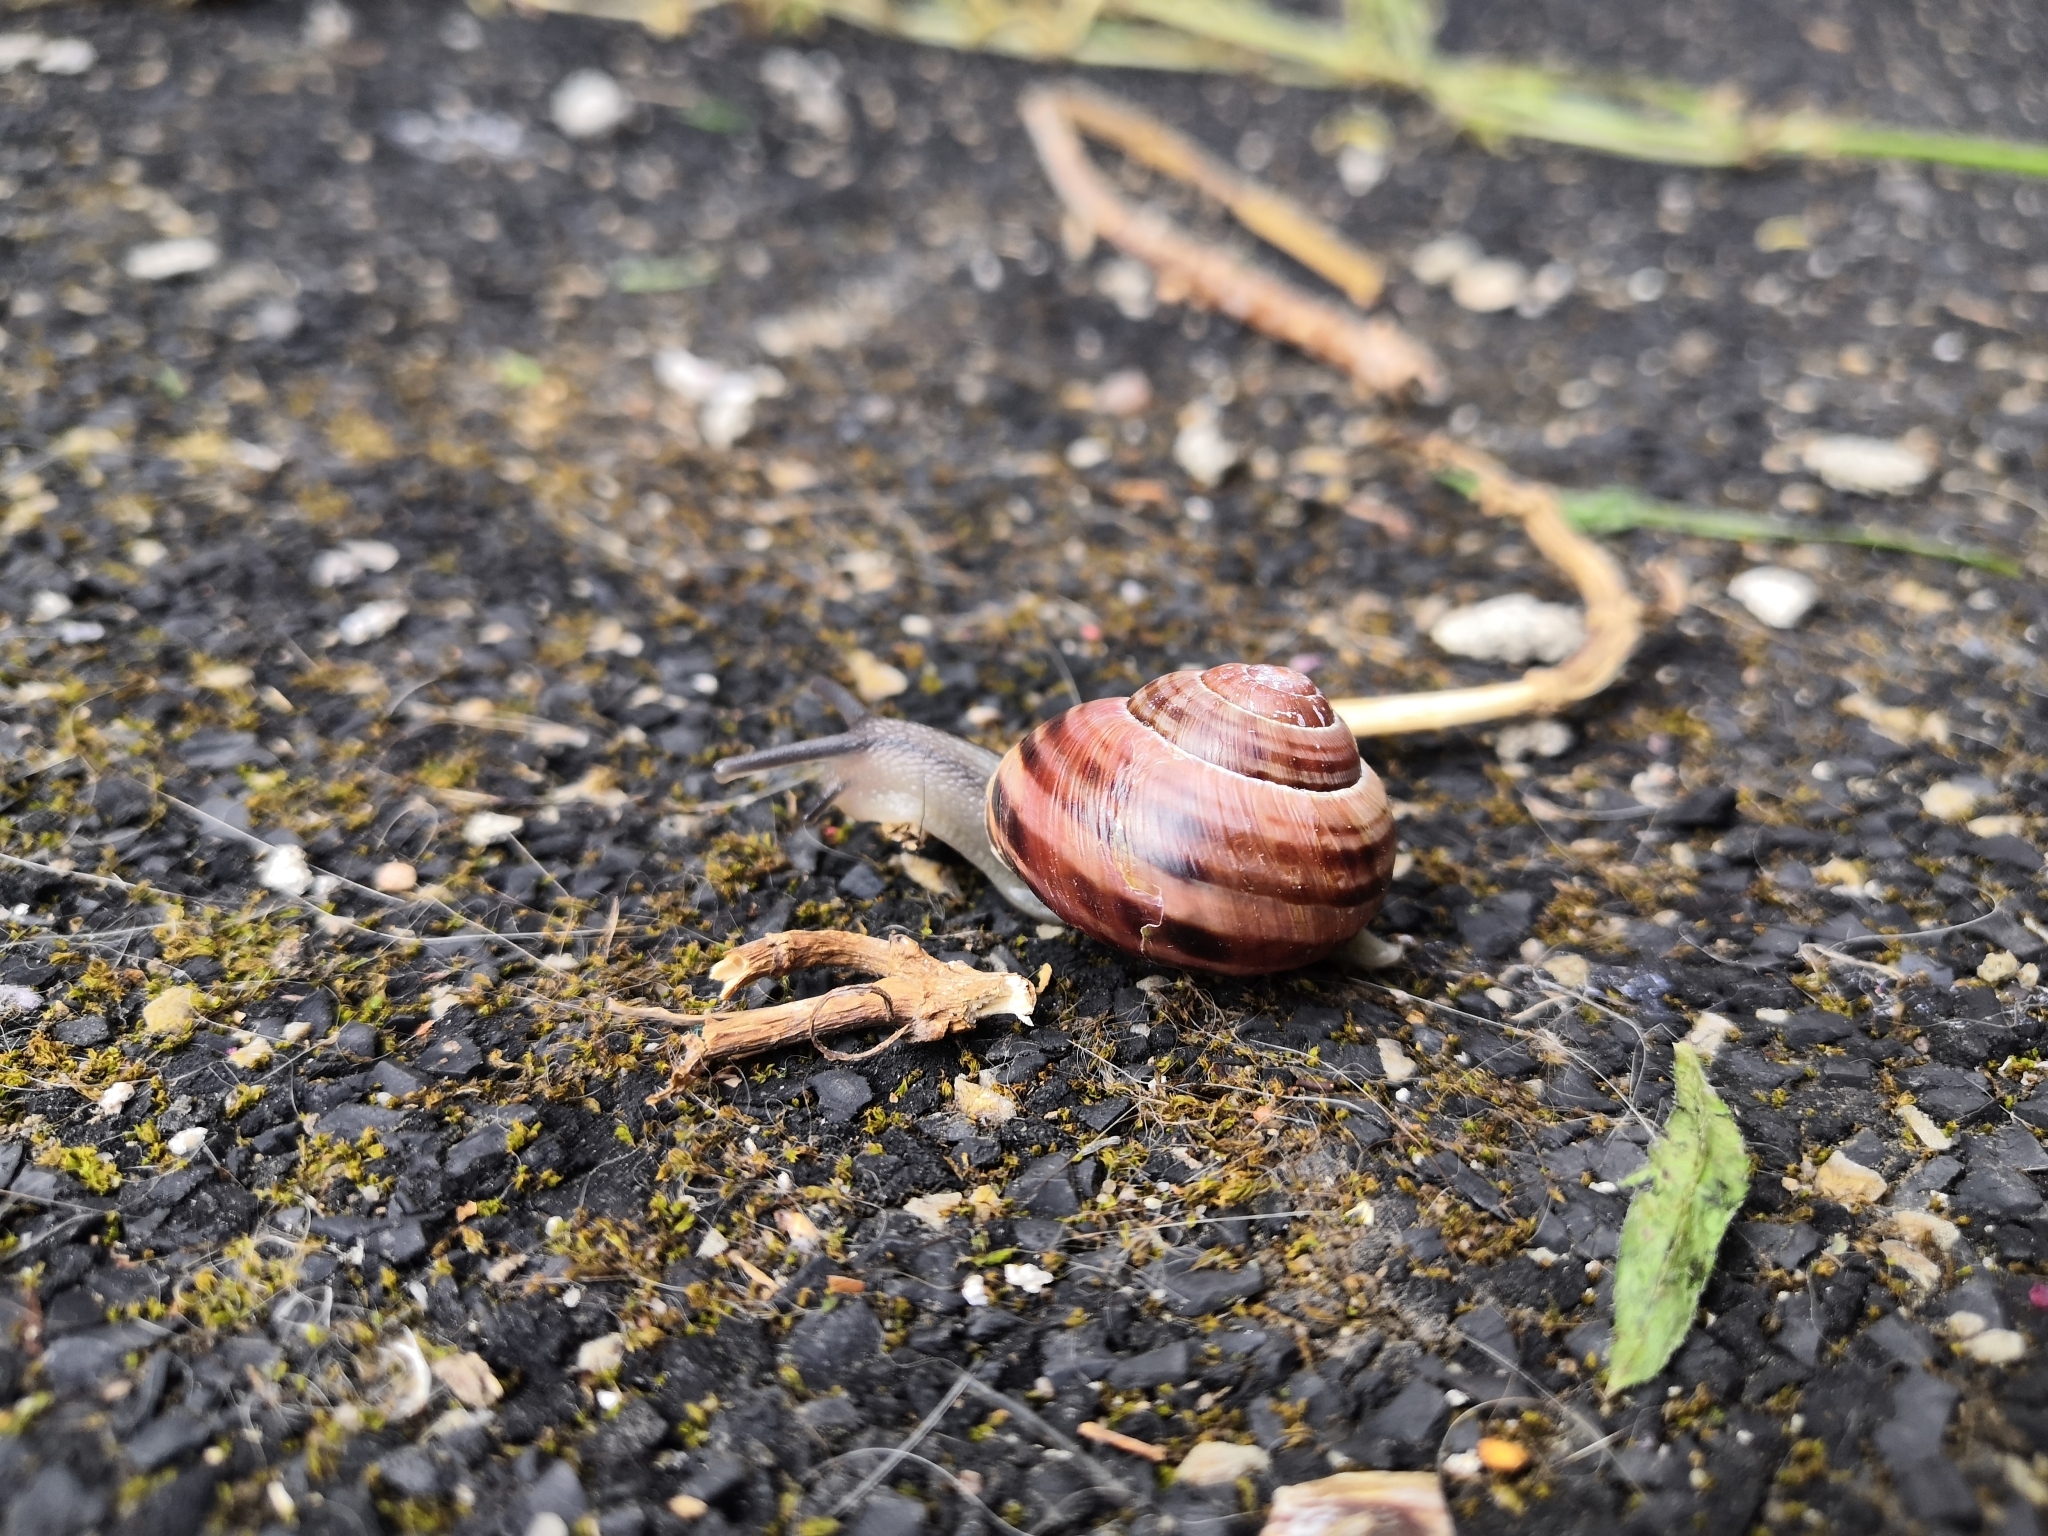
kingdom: Animalia
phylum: Mollusca
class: Gastropoda
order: Stylommatophora
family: Helicidae
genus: Cepaea
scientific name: Cepaea nemoralis
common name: Grovesnail
